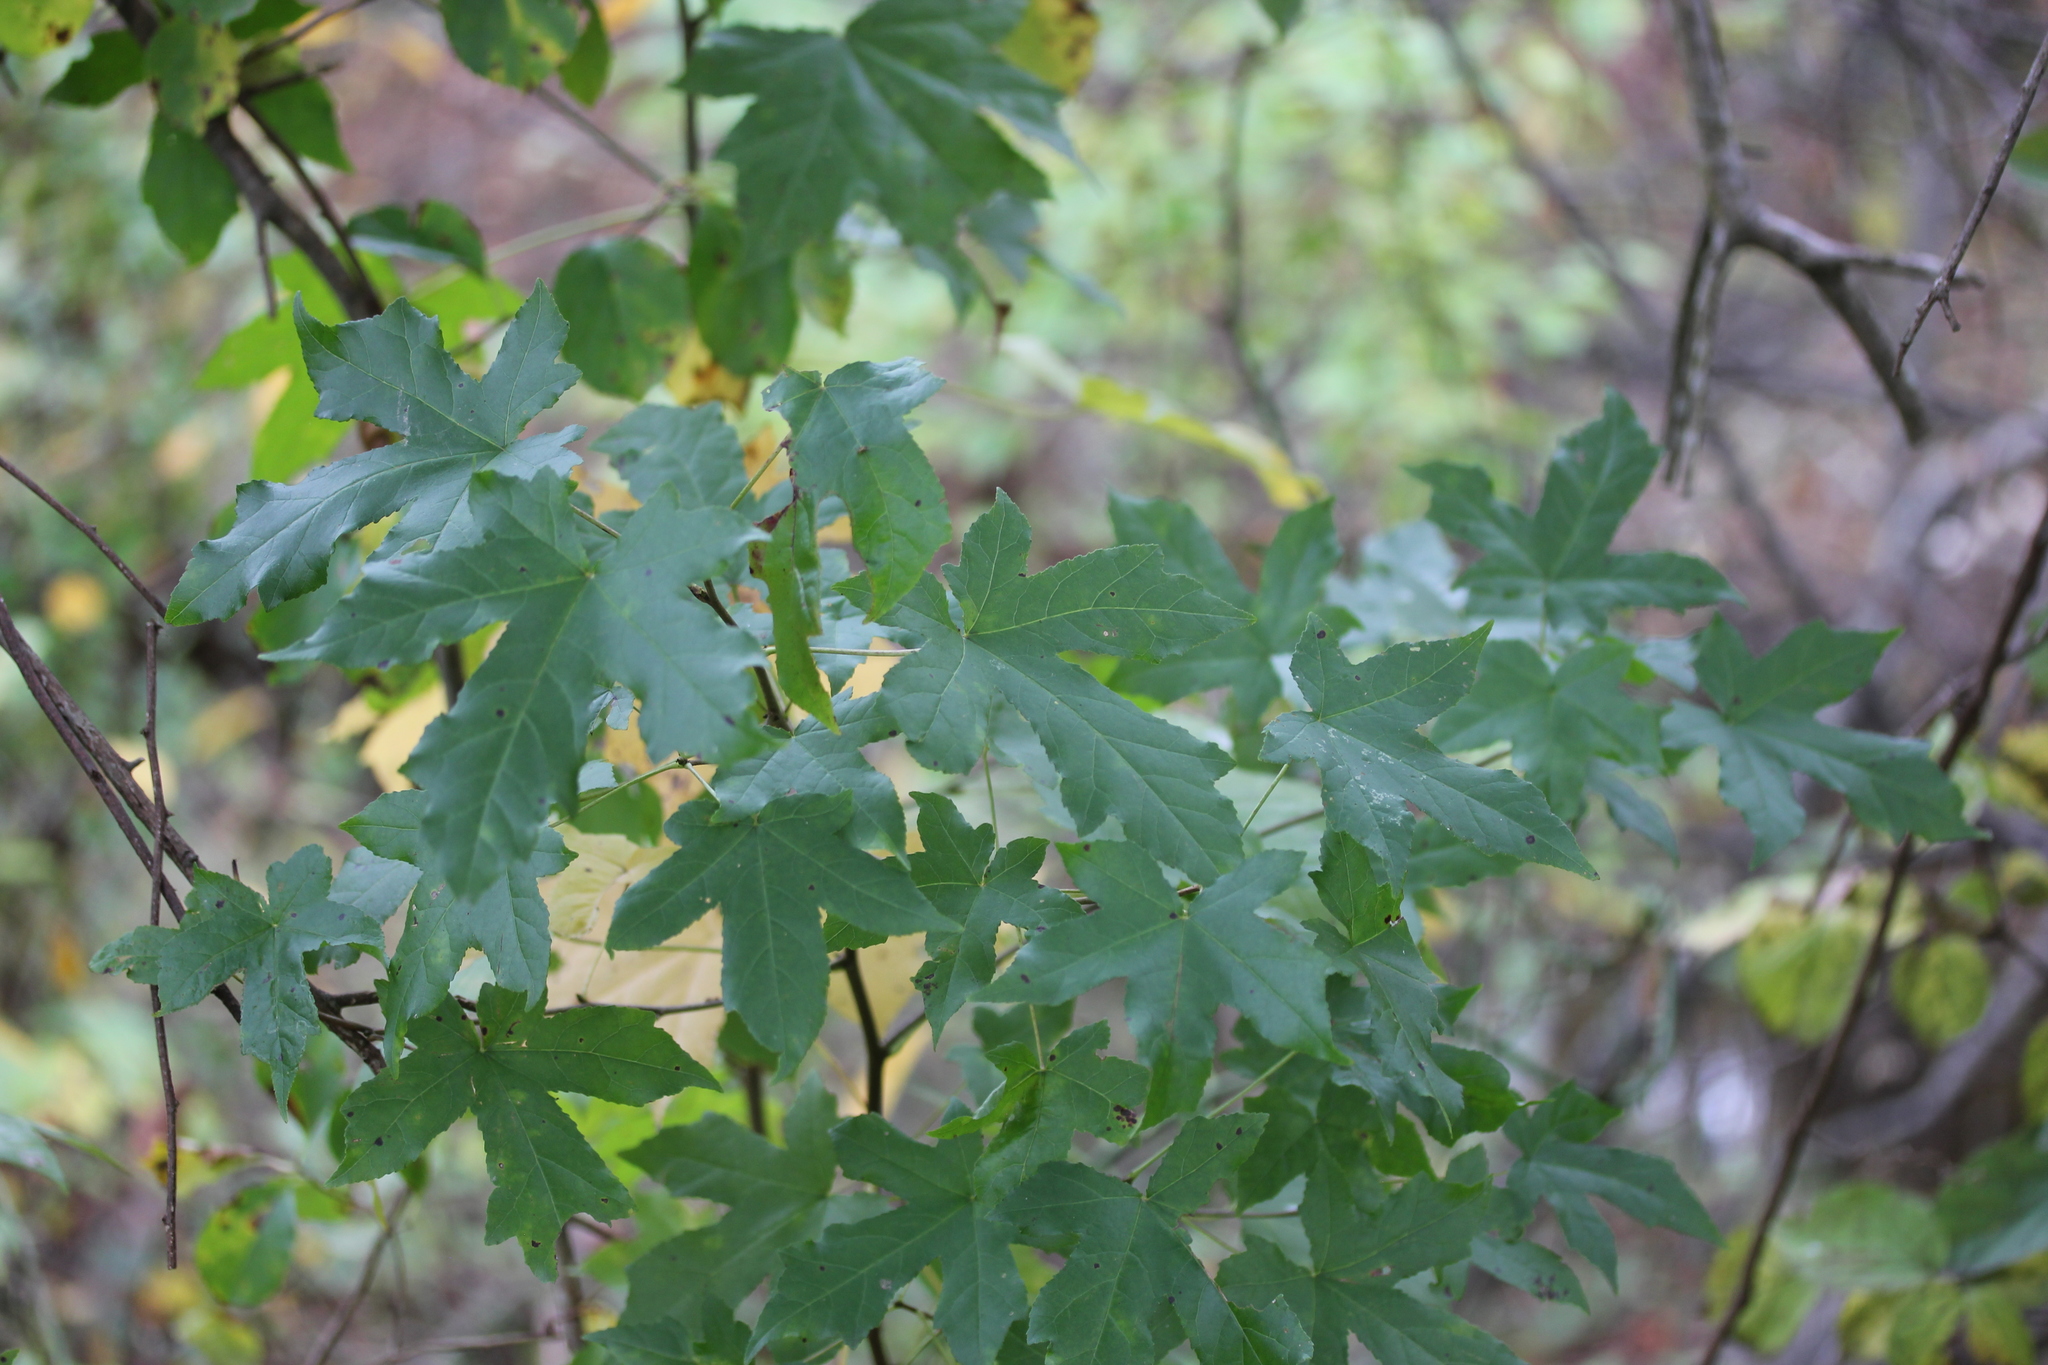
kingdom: Plantae
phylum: Tracheophyta
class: Magnoliopsida
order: Saxifragales
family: Altingiaceae
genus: Liquidambar
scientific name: Liquidambar styraciflua
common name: Sweet gum
